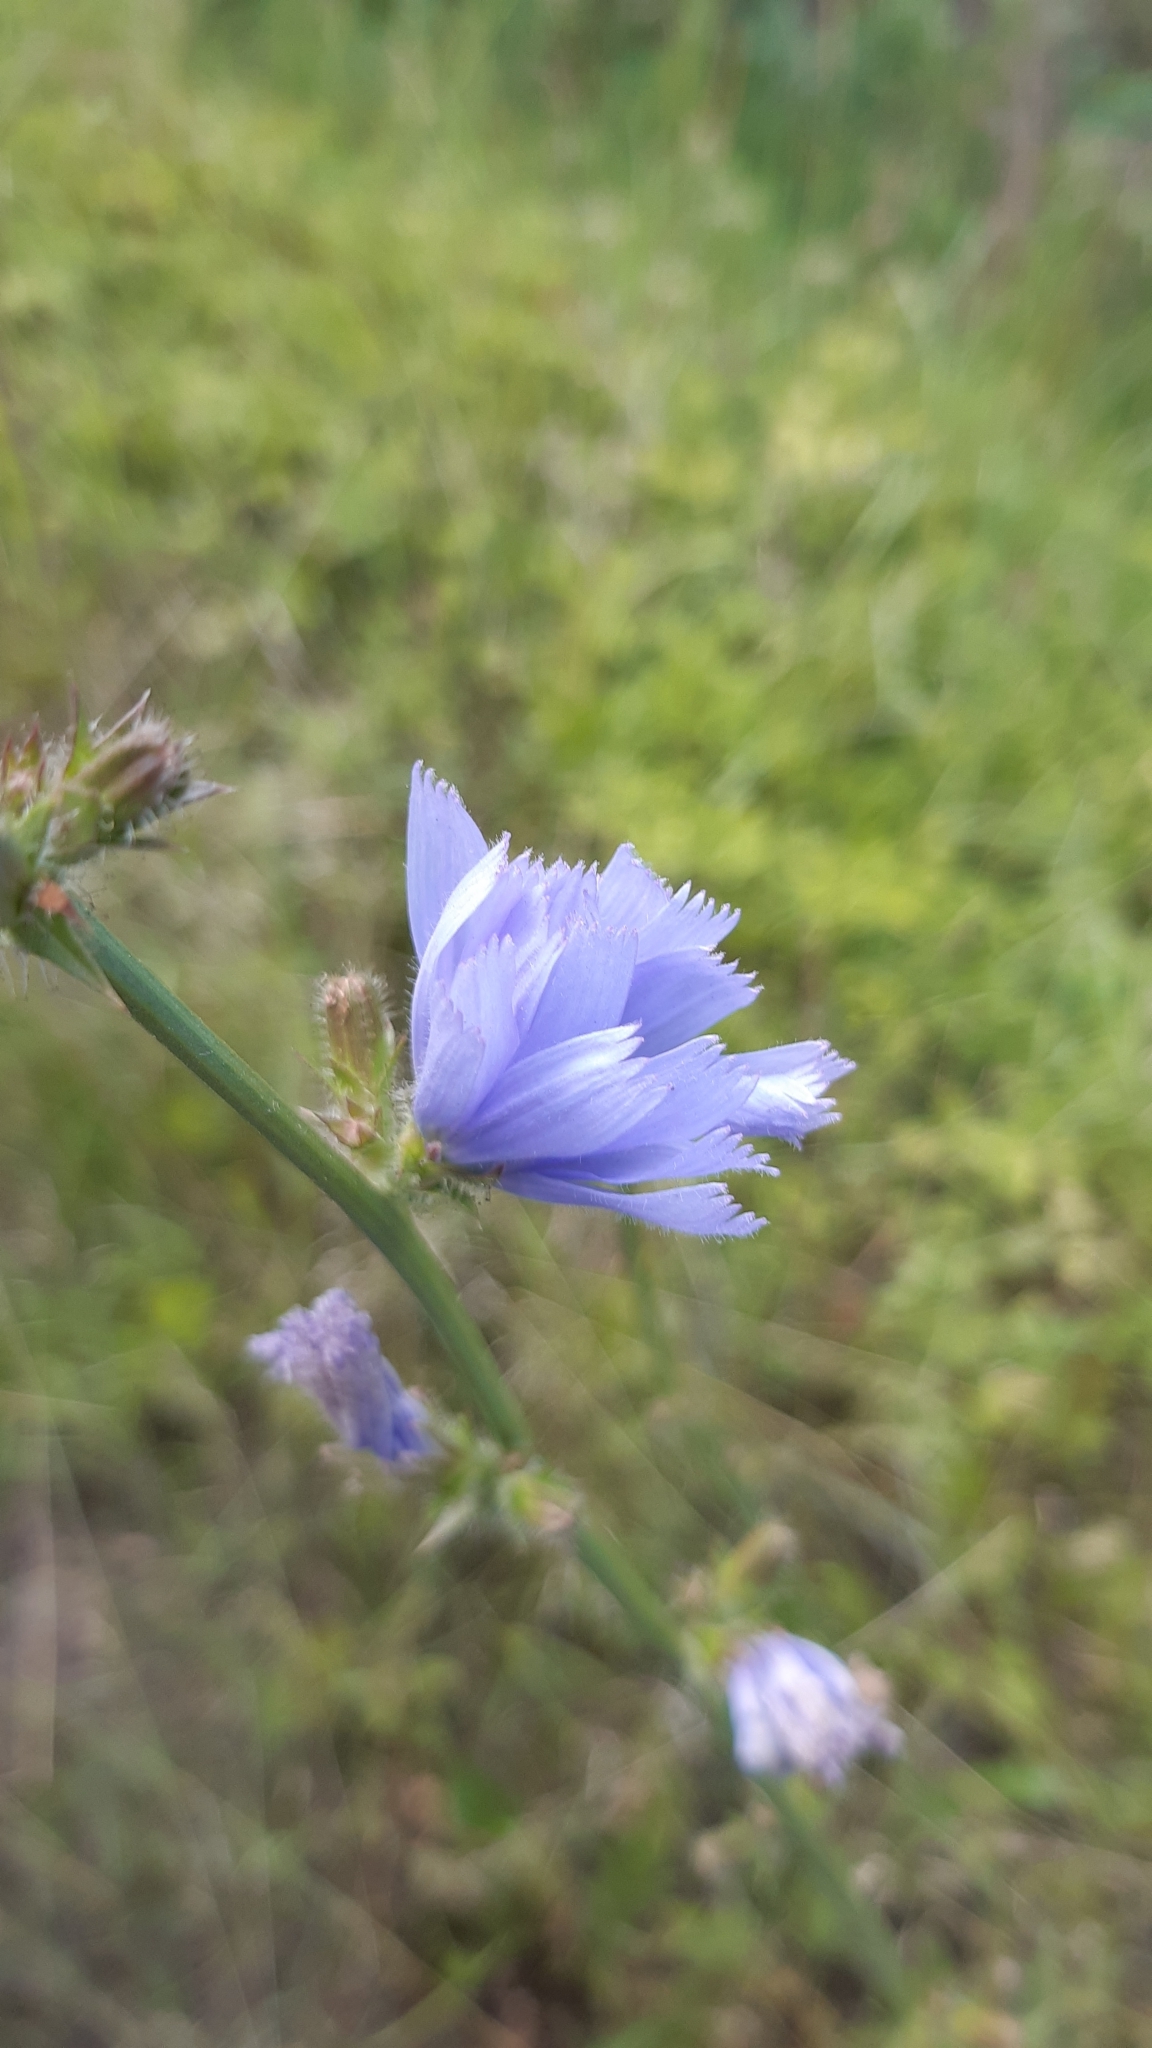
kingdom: Plantae
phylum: Tracheophyta
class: Magnoliopsida
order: Asterales
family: Asteraceae
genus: Cichorium
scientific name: Cichorium intybus
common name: Chicory
